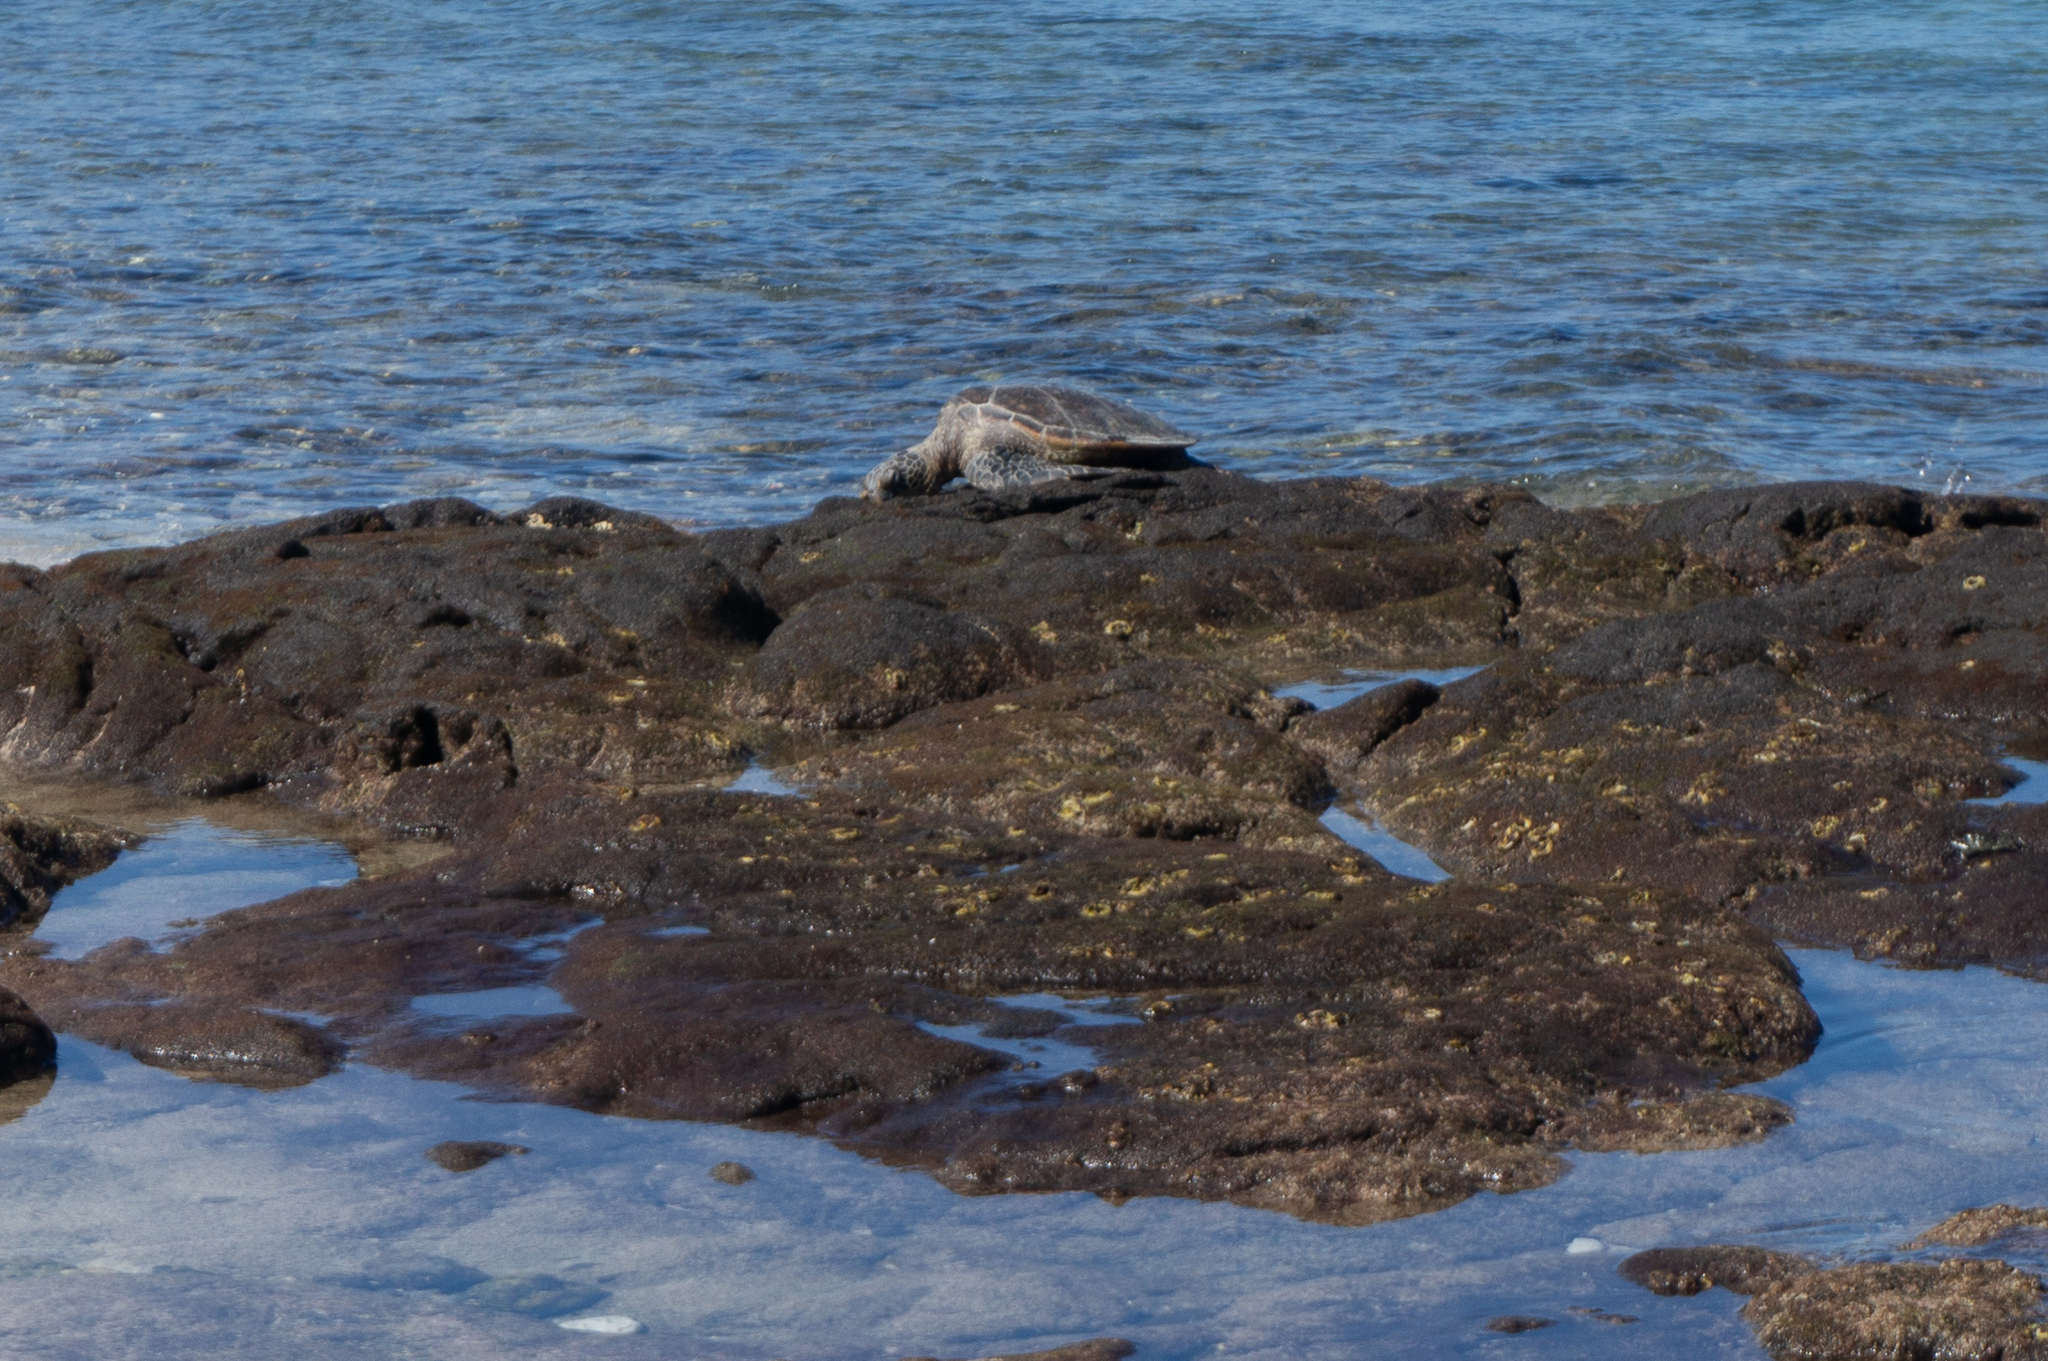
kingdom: Animalia
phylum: Chordata
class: Testudines
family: Cheloniidae
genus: Chelonia
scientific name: Chelonia mydas
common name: Green turtle
